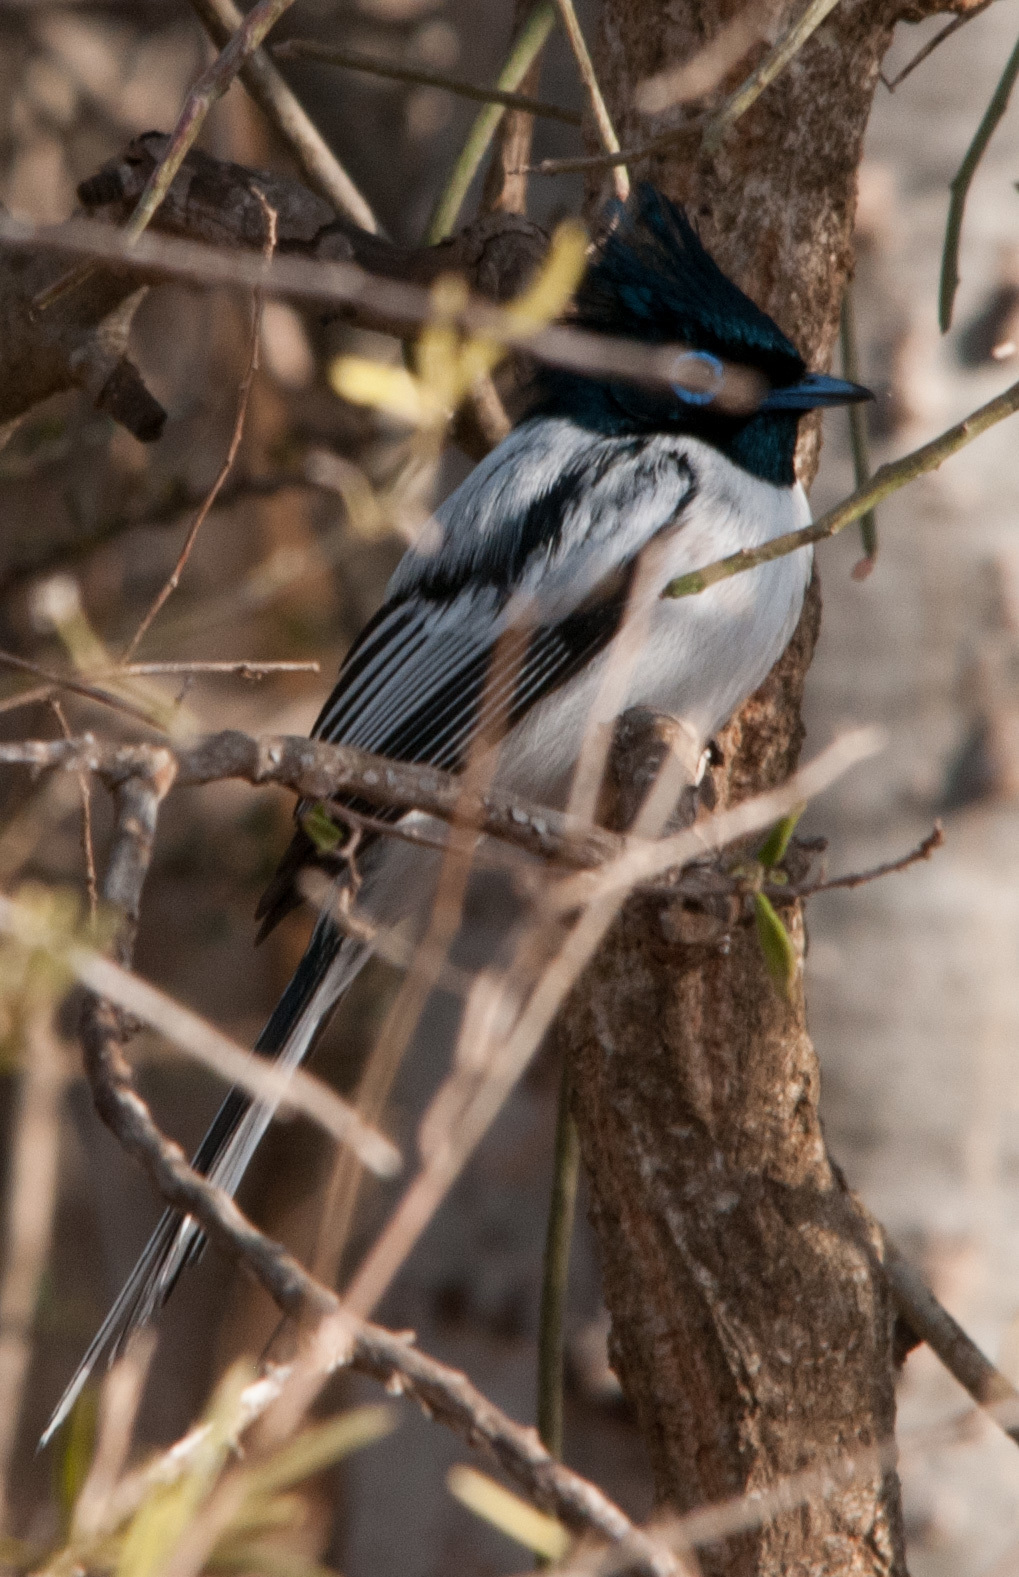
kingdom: Animalia
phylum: Chordata
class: Aves
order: Passeriformes
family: Monarchidae
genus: Terpsiphone
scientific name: Terpsiphone mutata
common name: Malagasy paradise flycatcher
